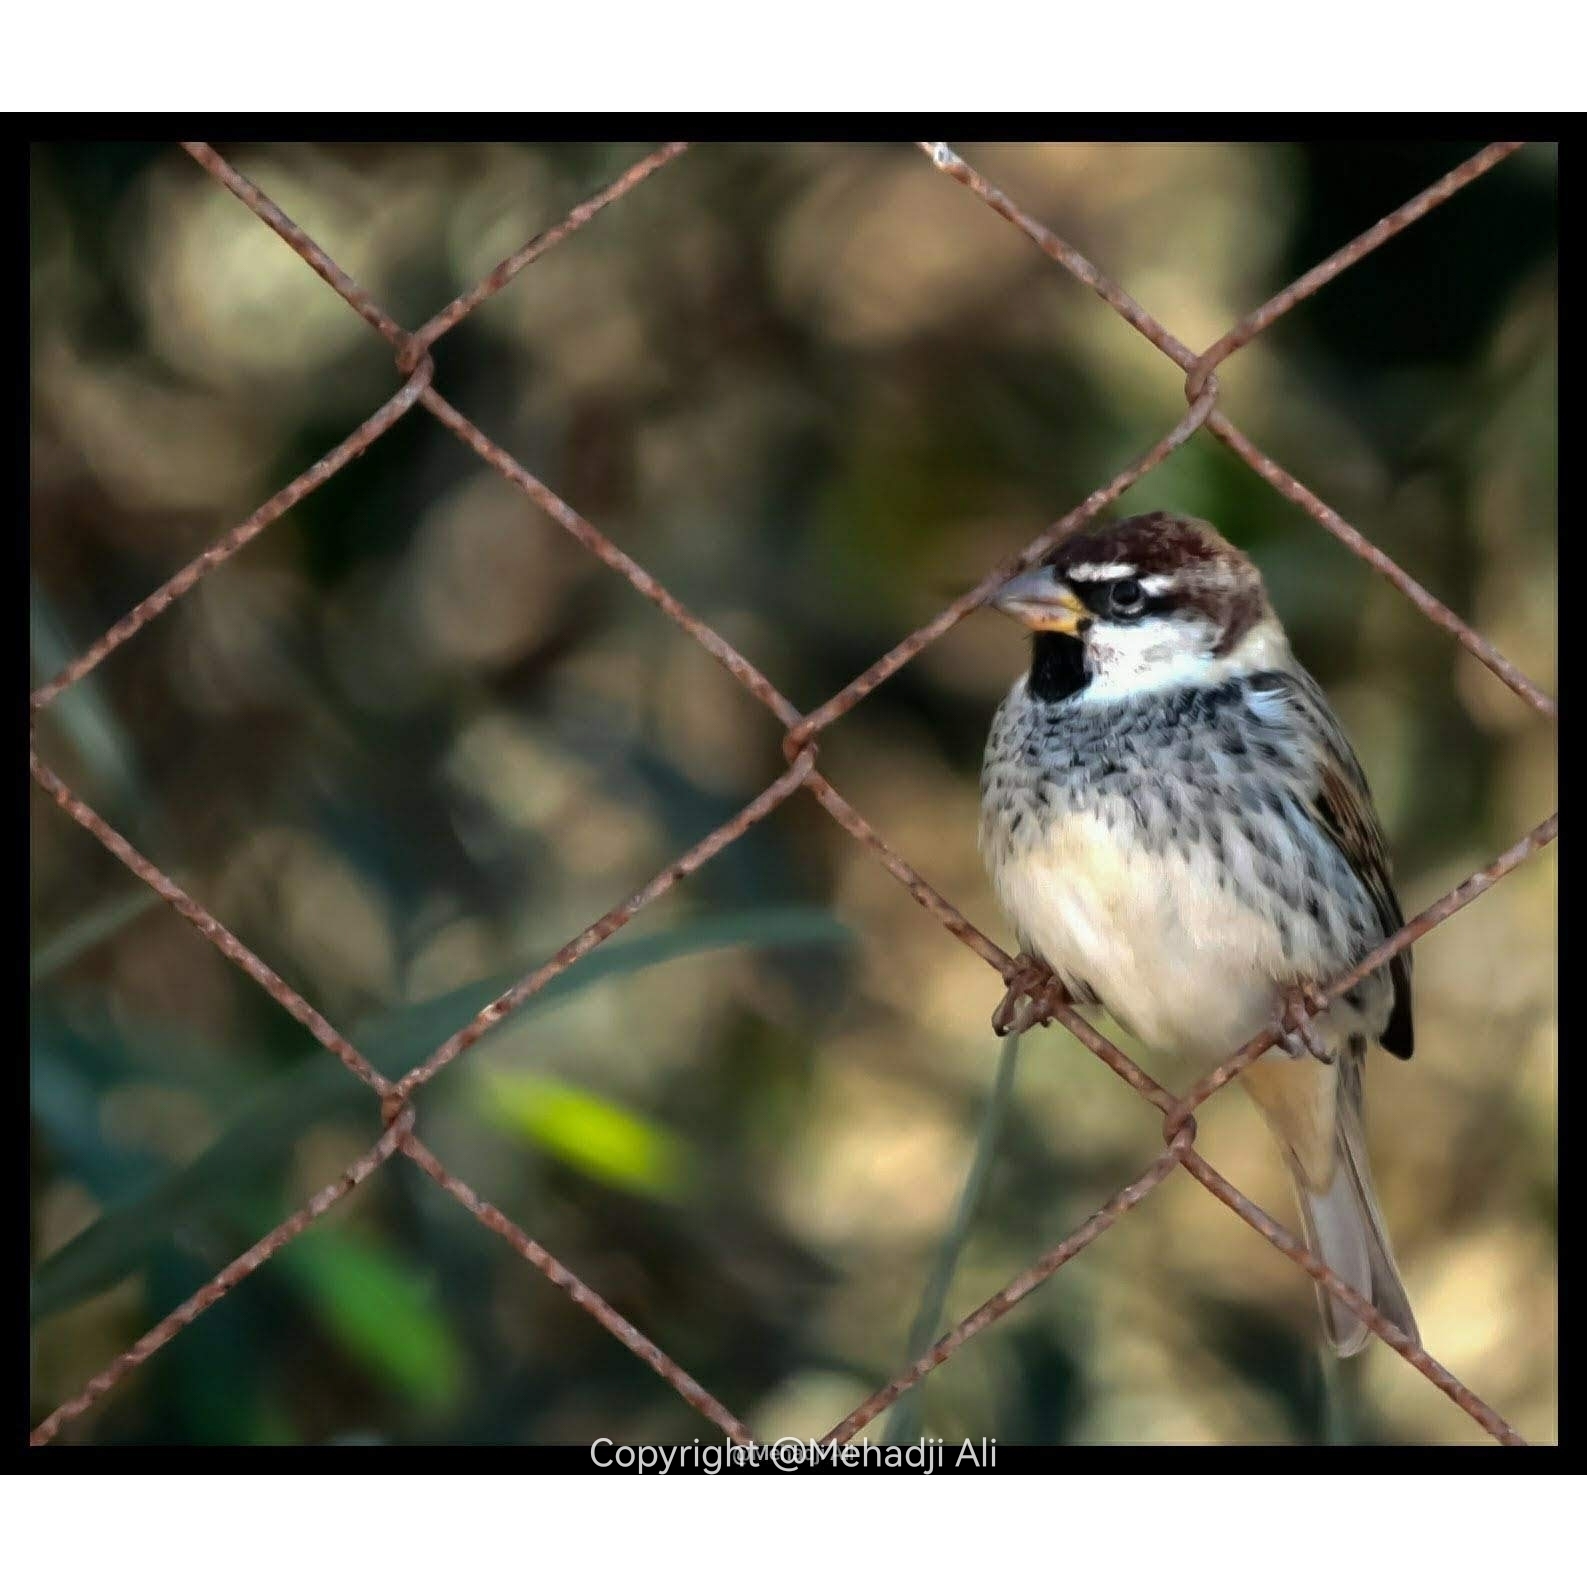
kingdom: Animalia
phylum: Chordata
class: Aves
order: Passeriformes
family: Passeridae
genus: Passer
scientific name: Passer hispaniolensis
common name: Spanish sparrow
